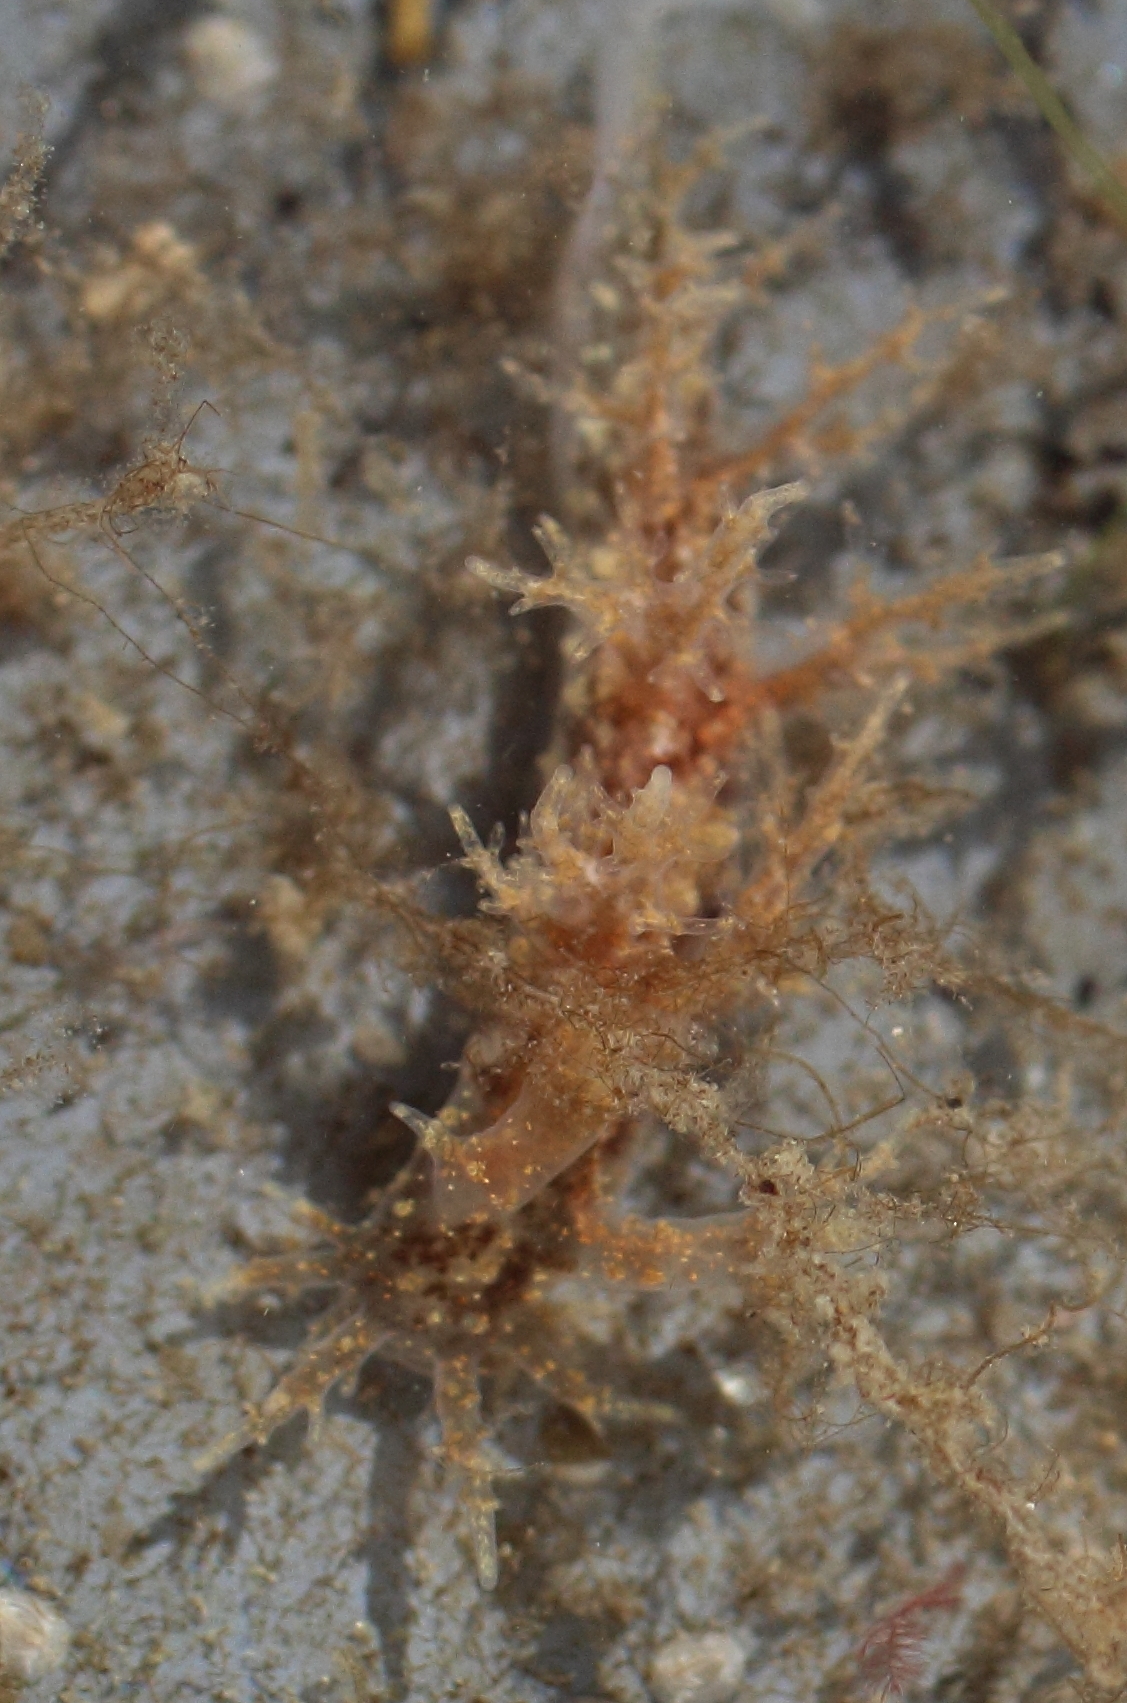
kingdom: Animalia
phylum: Mollusca
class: Gastropoda
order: Nudibranchia
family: Dendronotidae
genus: Dendronotus
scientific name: Dendronotus venustus
